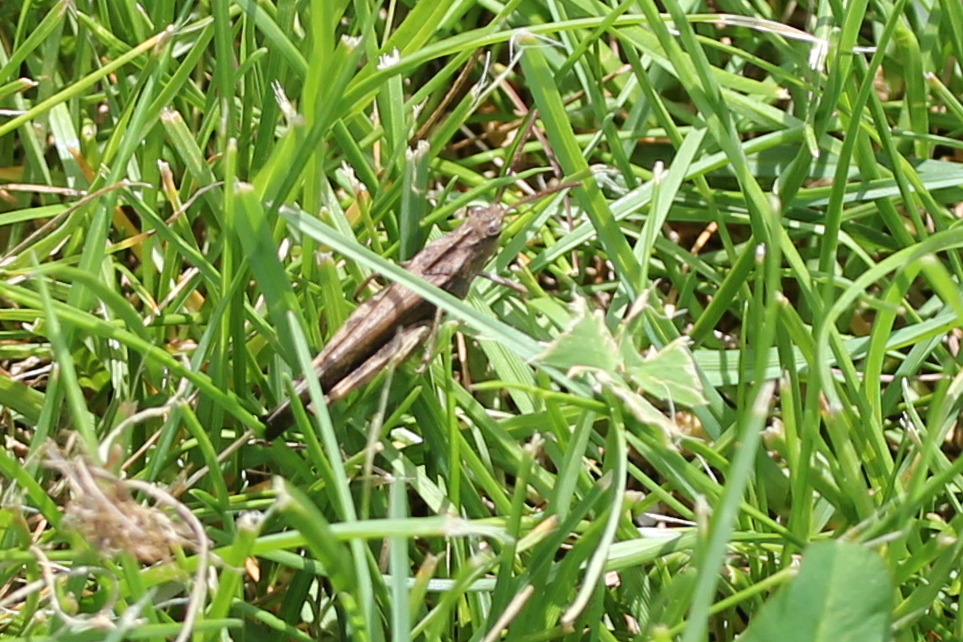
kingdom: Animalia
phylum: Arthropoda
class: Insecta
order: Orthoptera
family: Acrididae
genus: Chortophaga
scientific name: Chortophaga viridifasciata
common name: Green-striped grasshopper
